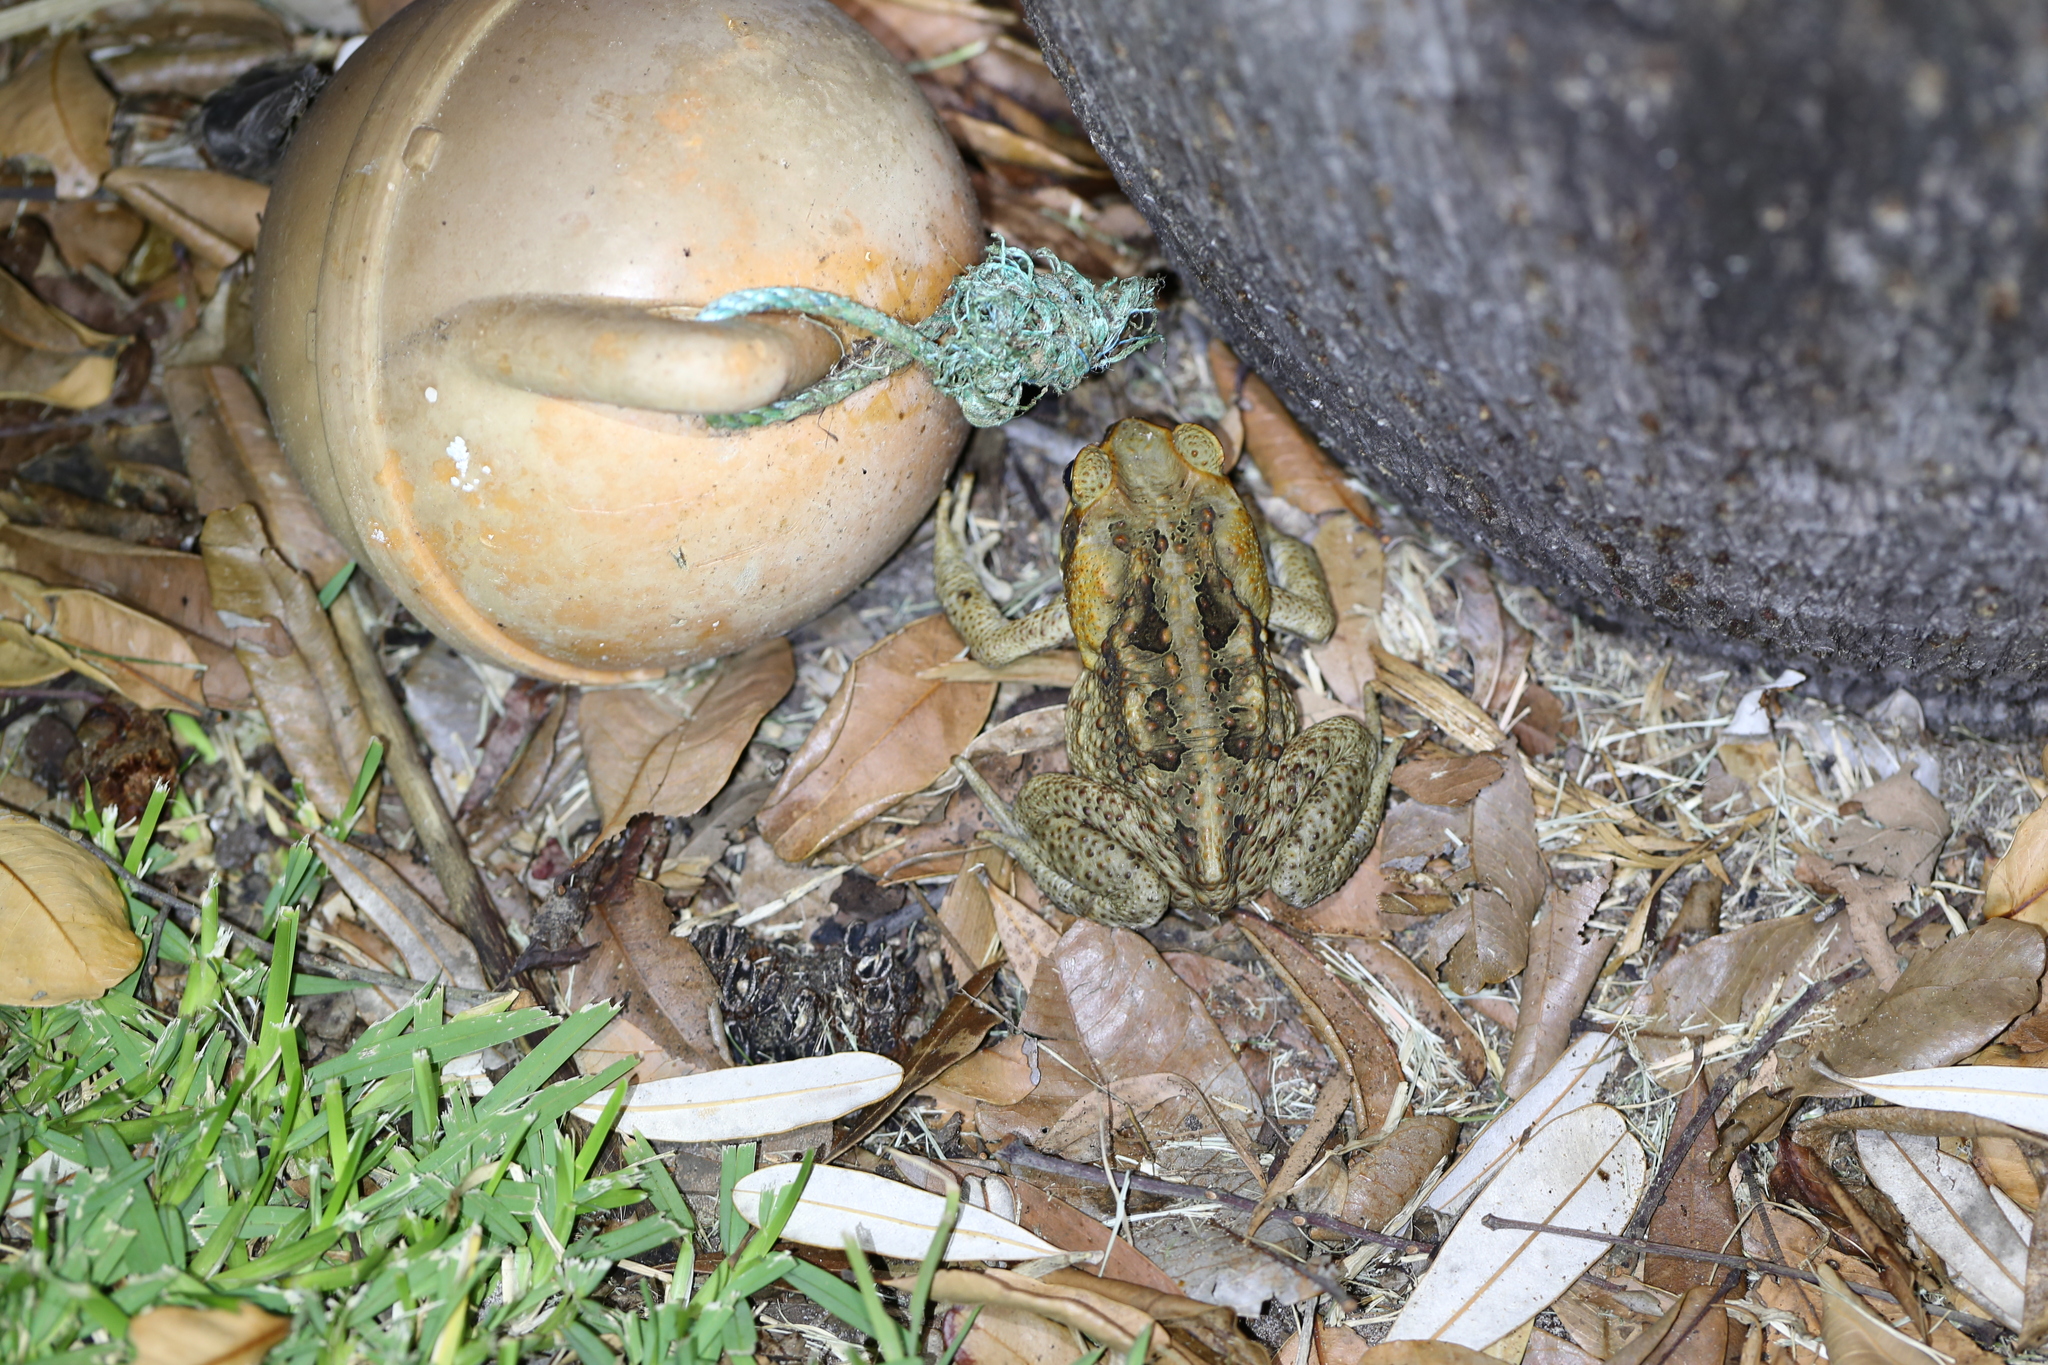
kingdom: Animalia
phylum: Chordata
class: Amphibia
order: Anura
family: Bufonidae
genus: Rhinella
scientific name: Rhinella marina
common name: Cane toad
